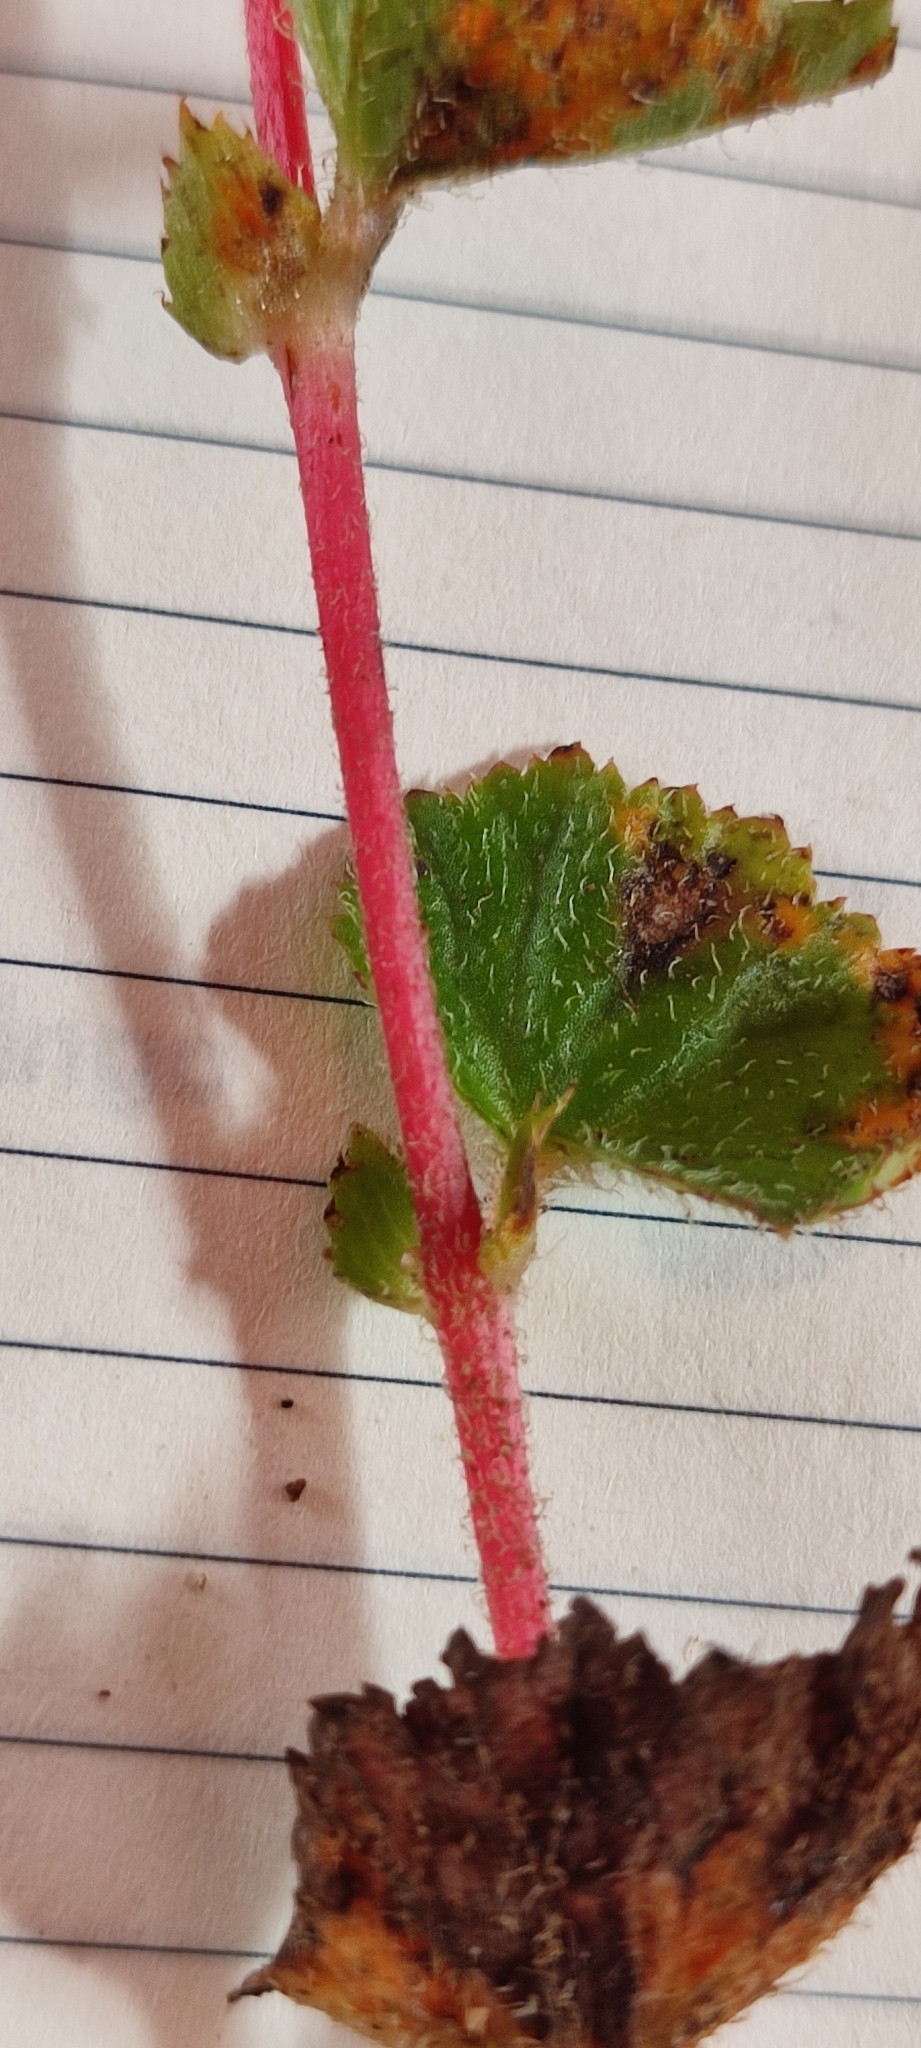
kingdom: Plantae
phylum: Tracheophyta
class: Magnoliopsida
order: Cucurbitales
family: Begoniaceae
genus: Begonia
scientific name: Begonia bulbillifera
